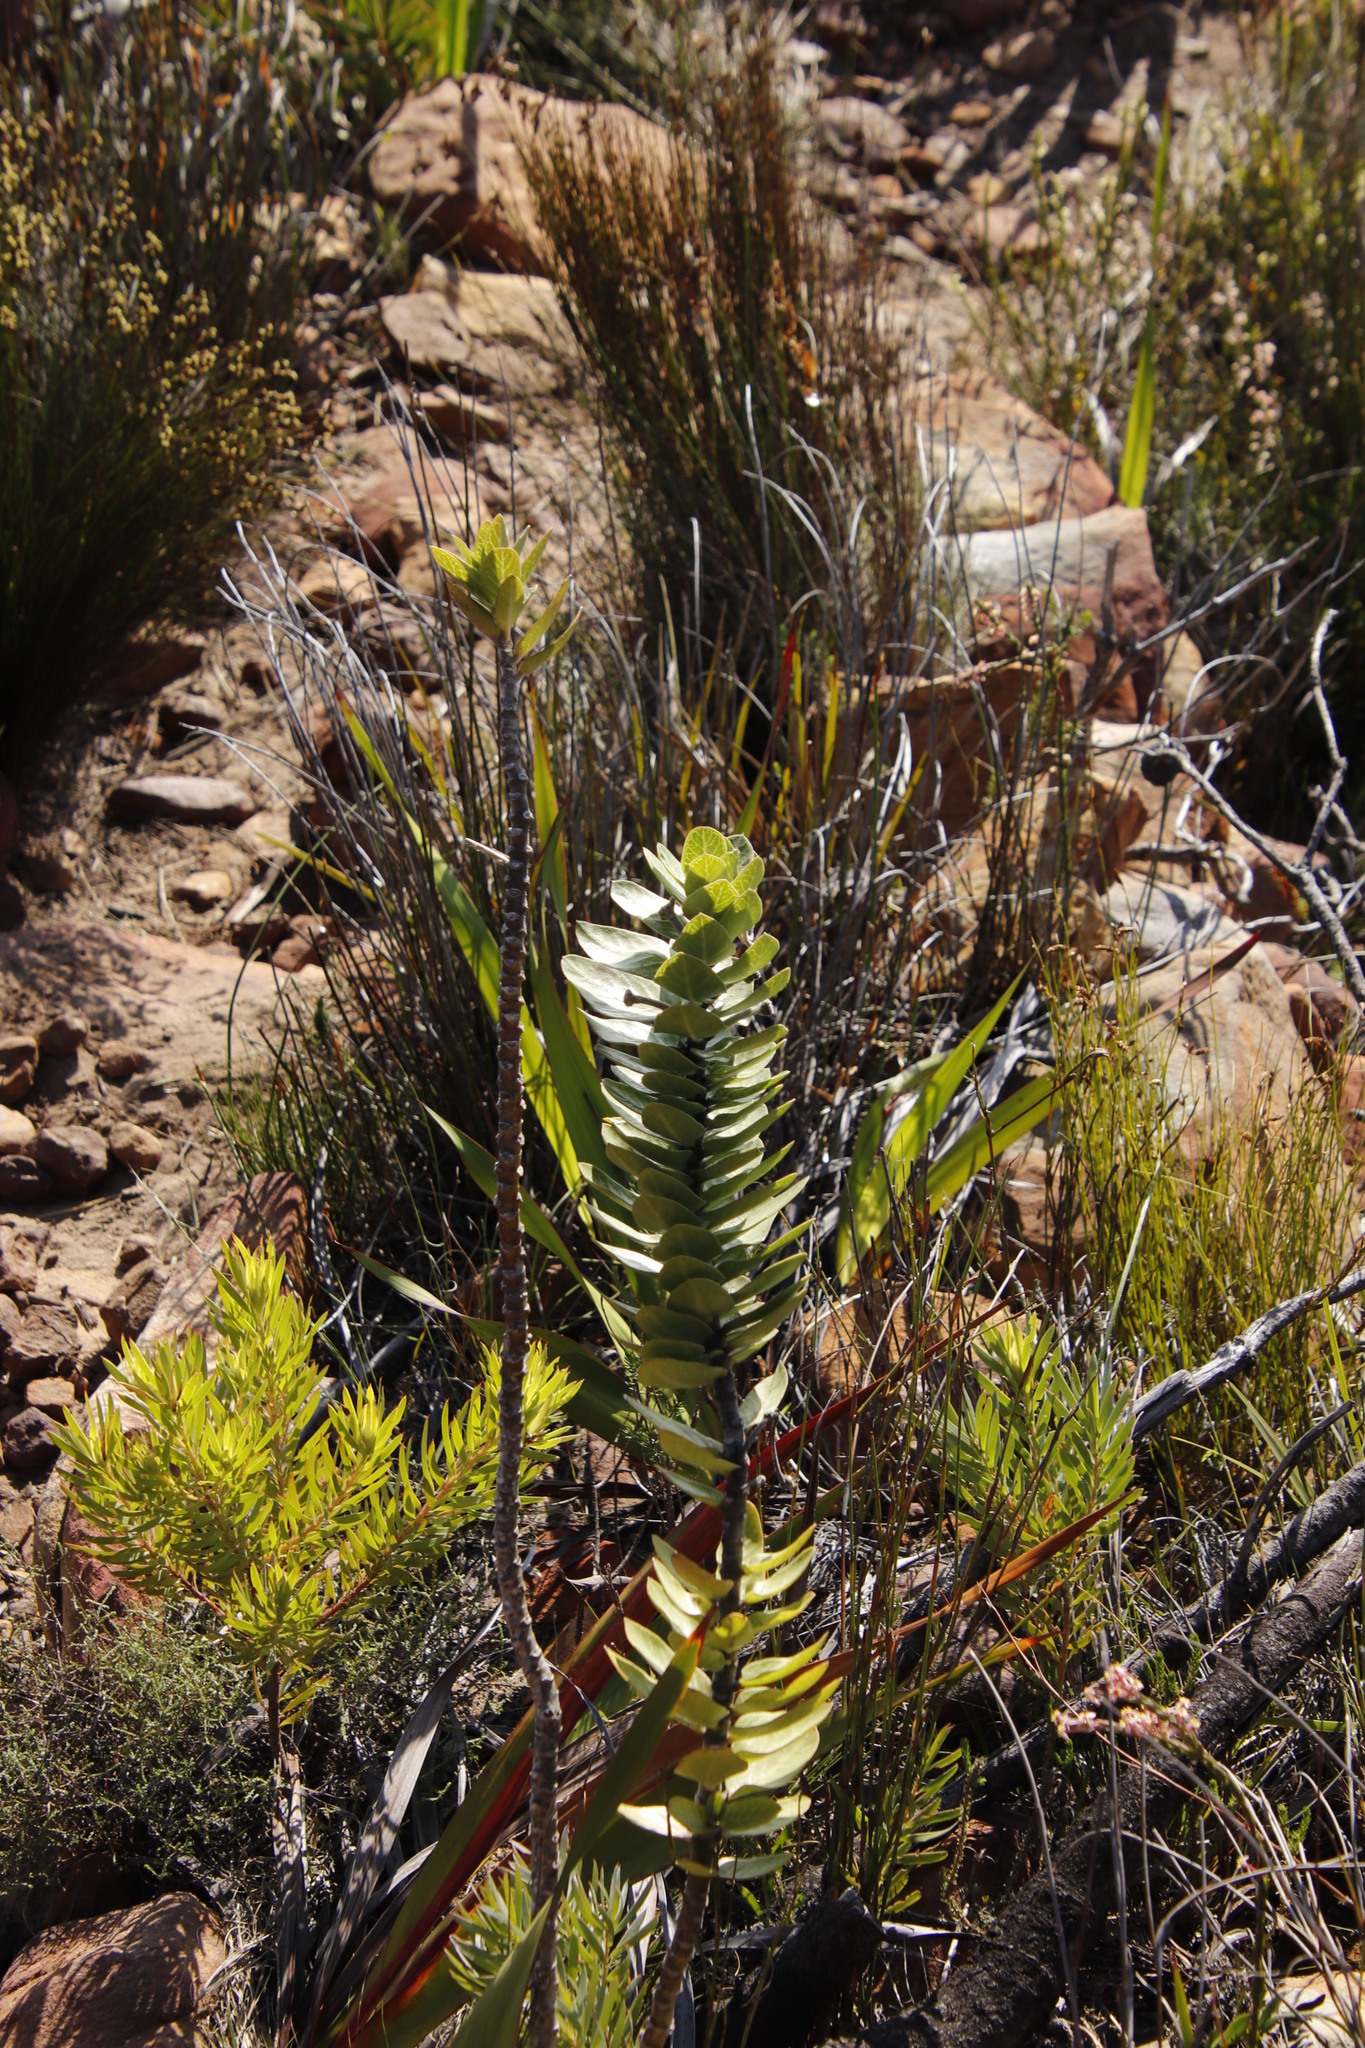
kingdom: Plantae
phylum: Tracheophyta
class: Magnoliopsida
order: Gentianales
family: Apocynaceae
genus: Gomphocarpus
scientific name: Gomphocarpus cancellatus
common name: Wild cotton
